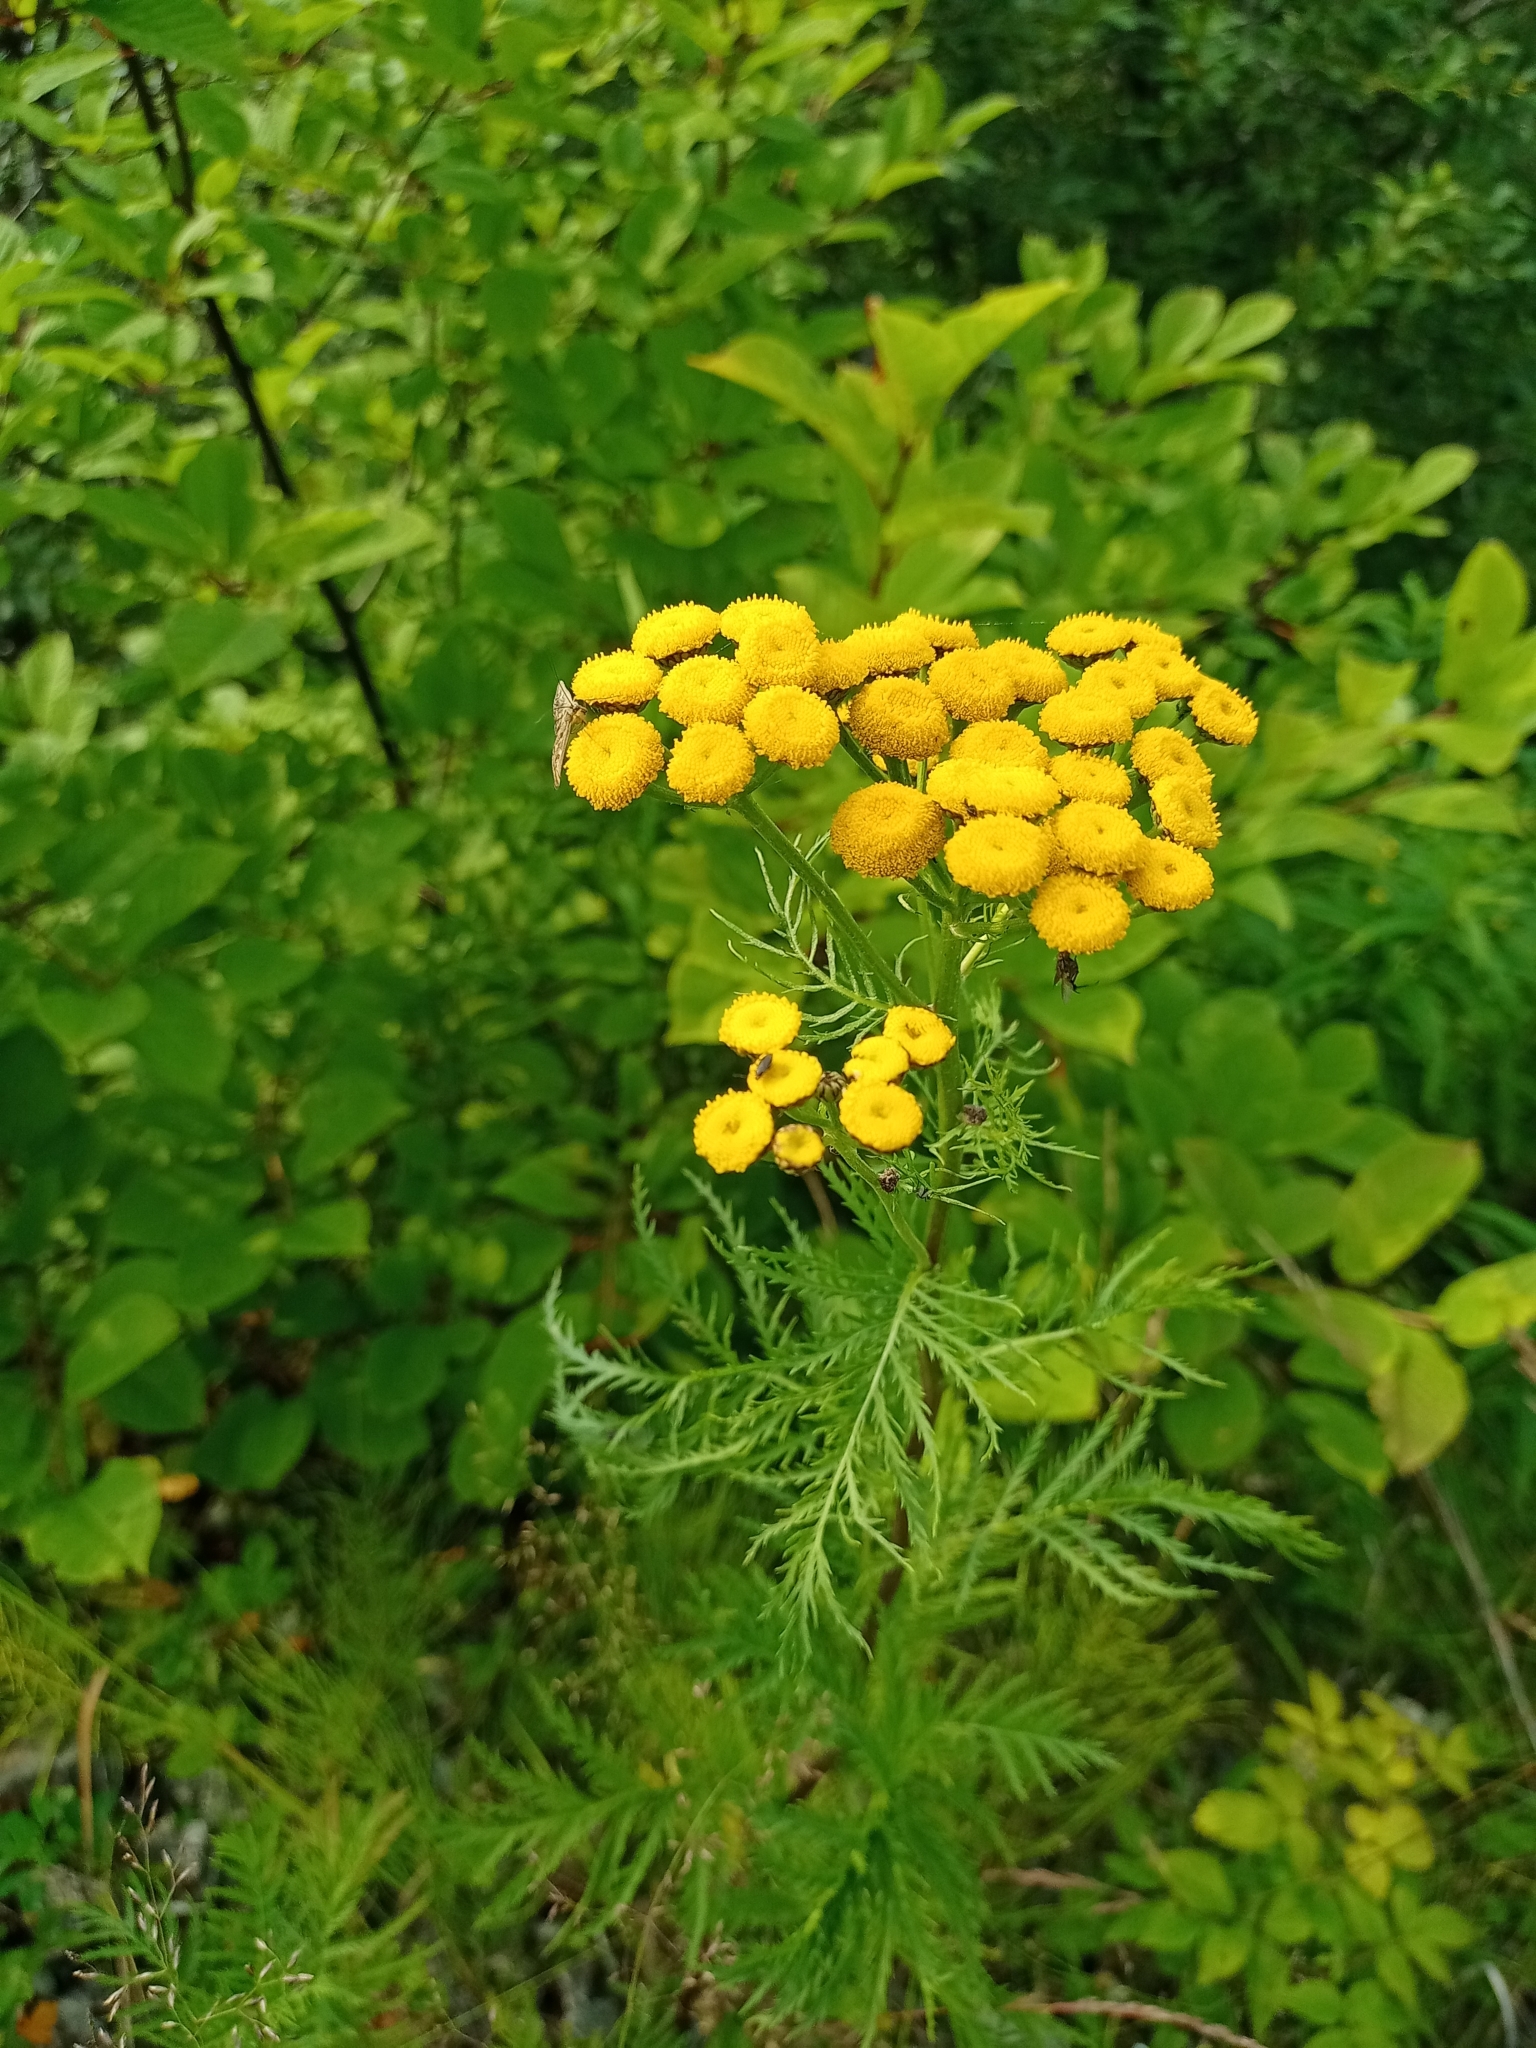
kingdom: Plantae
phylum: Tracheophyta
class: Magnoliopsida
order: Asterales
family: Asteraceae
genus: Tanacetum
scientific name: Tanacetum vulgare
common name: Common tansy
